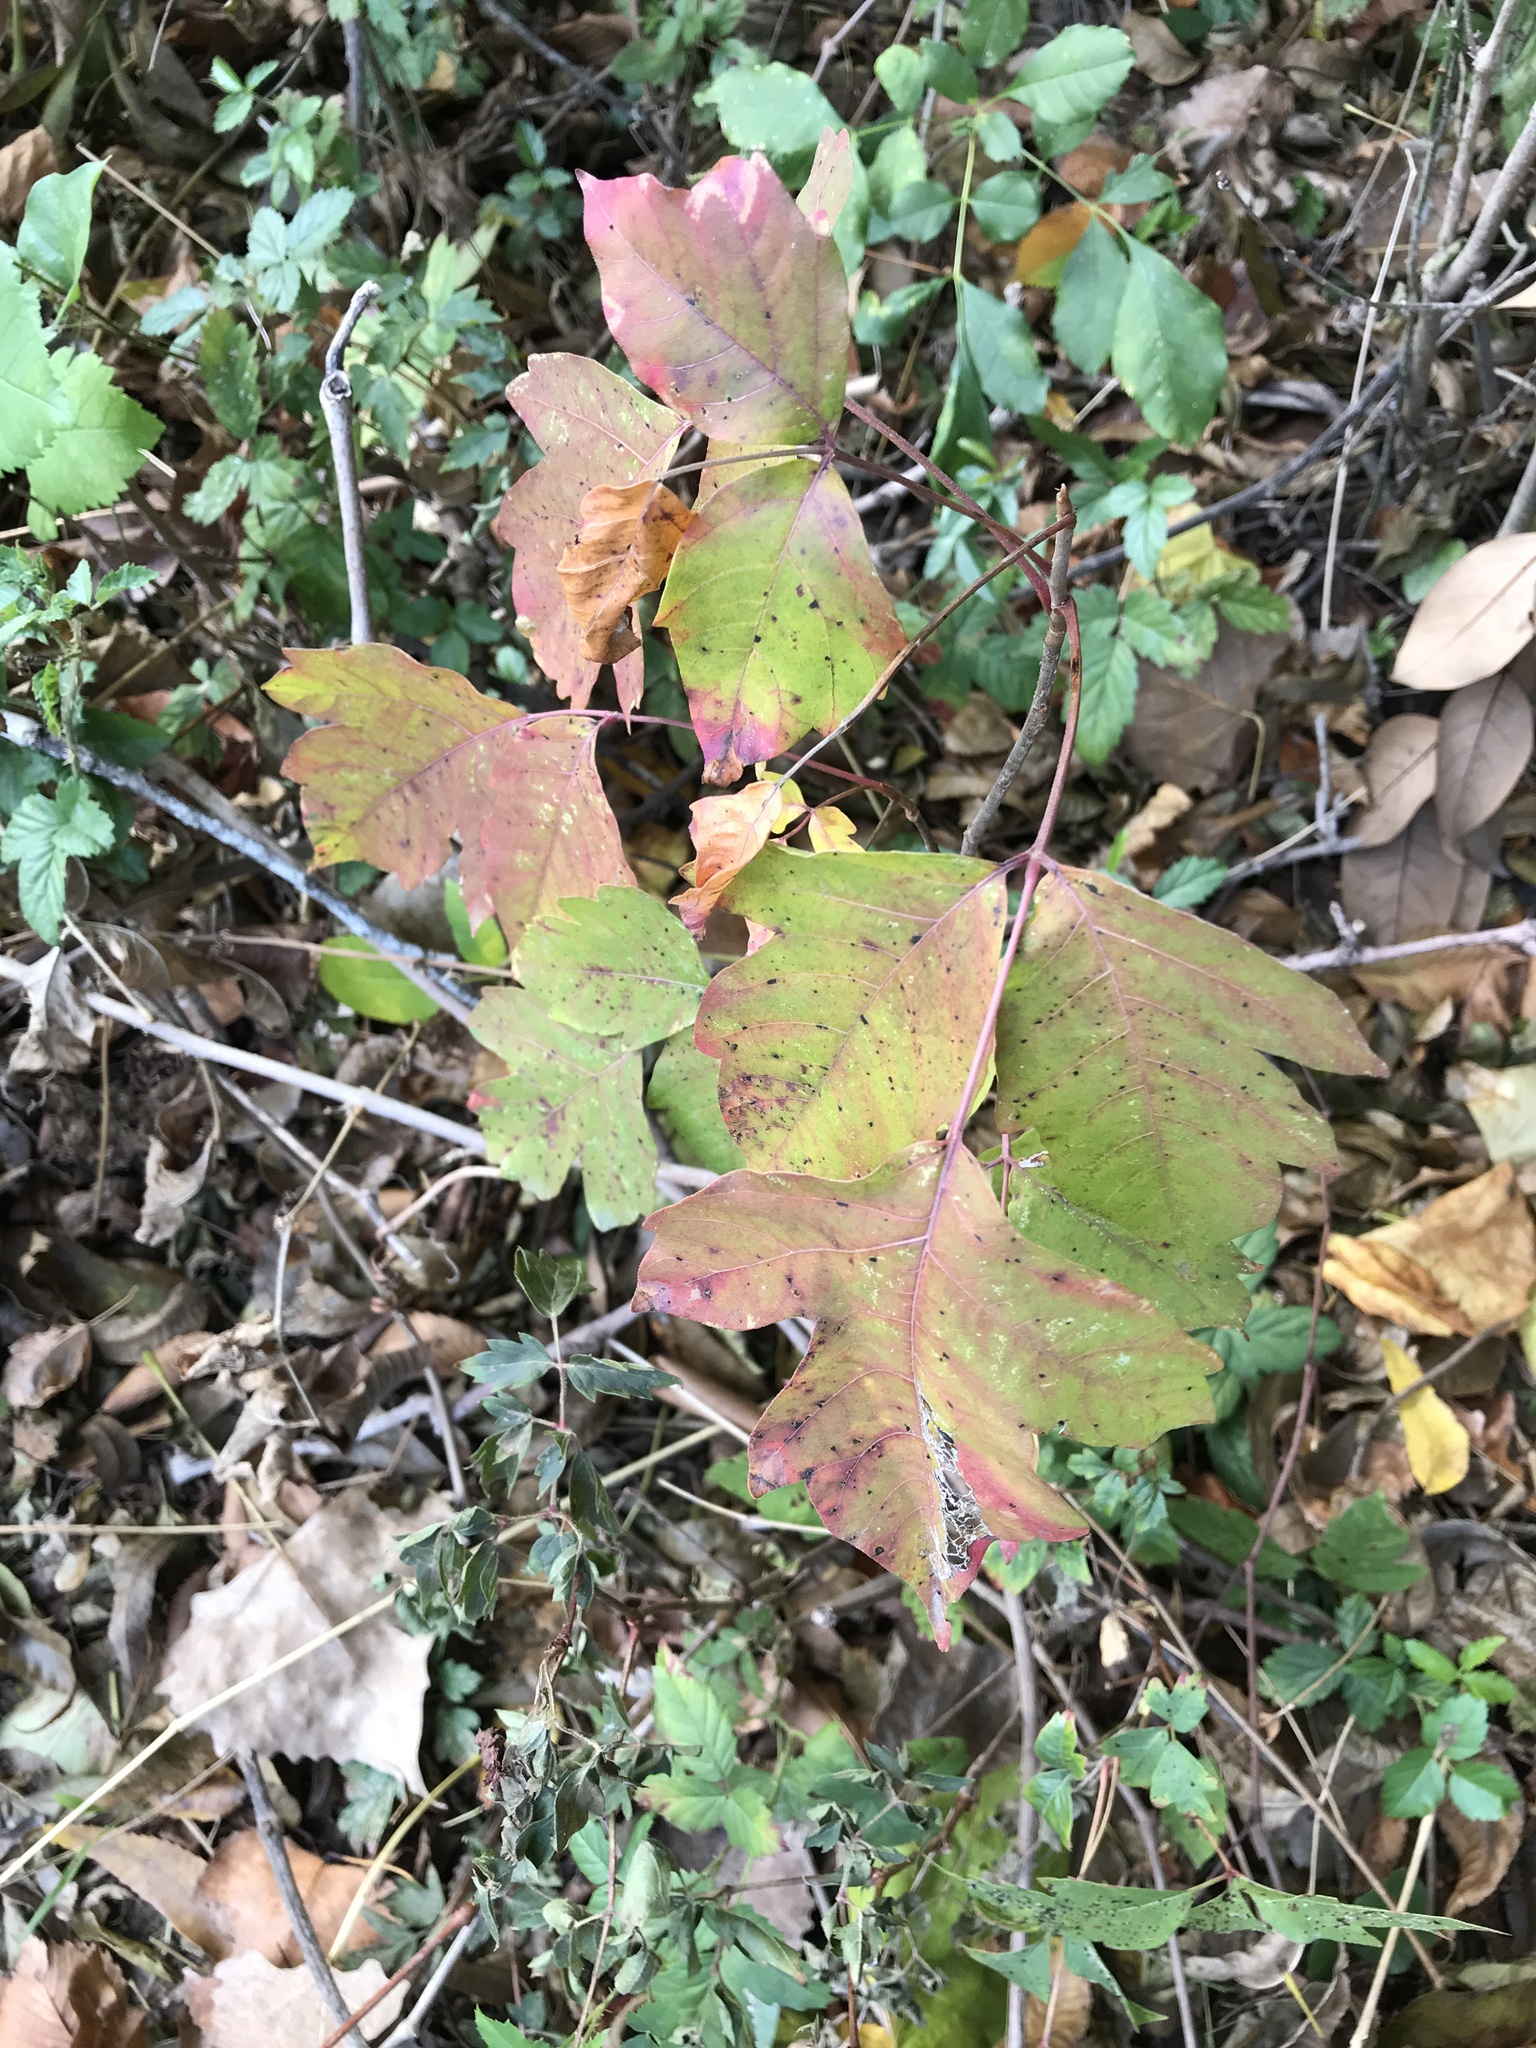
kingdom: Plantae
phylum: Tracheophyta
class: Magnoliopsida
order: Sapindales
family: Anacardiaceae
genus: Toxicodendron
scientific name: Toxicodendron radicans
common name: Poison ivy
